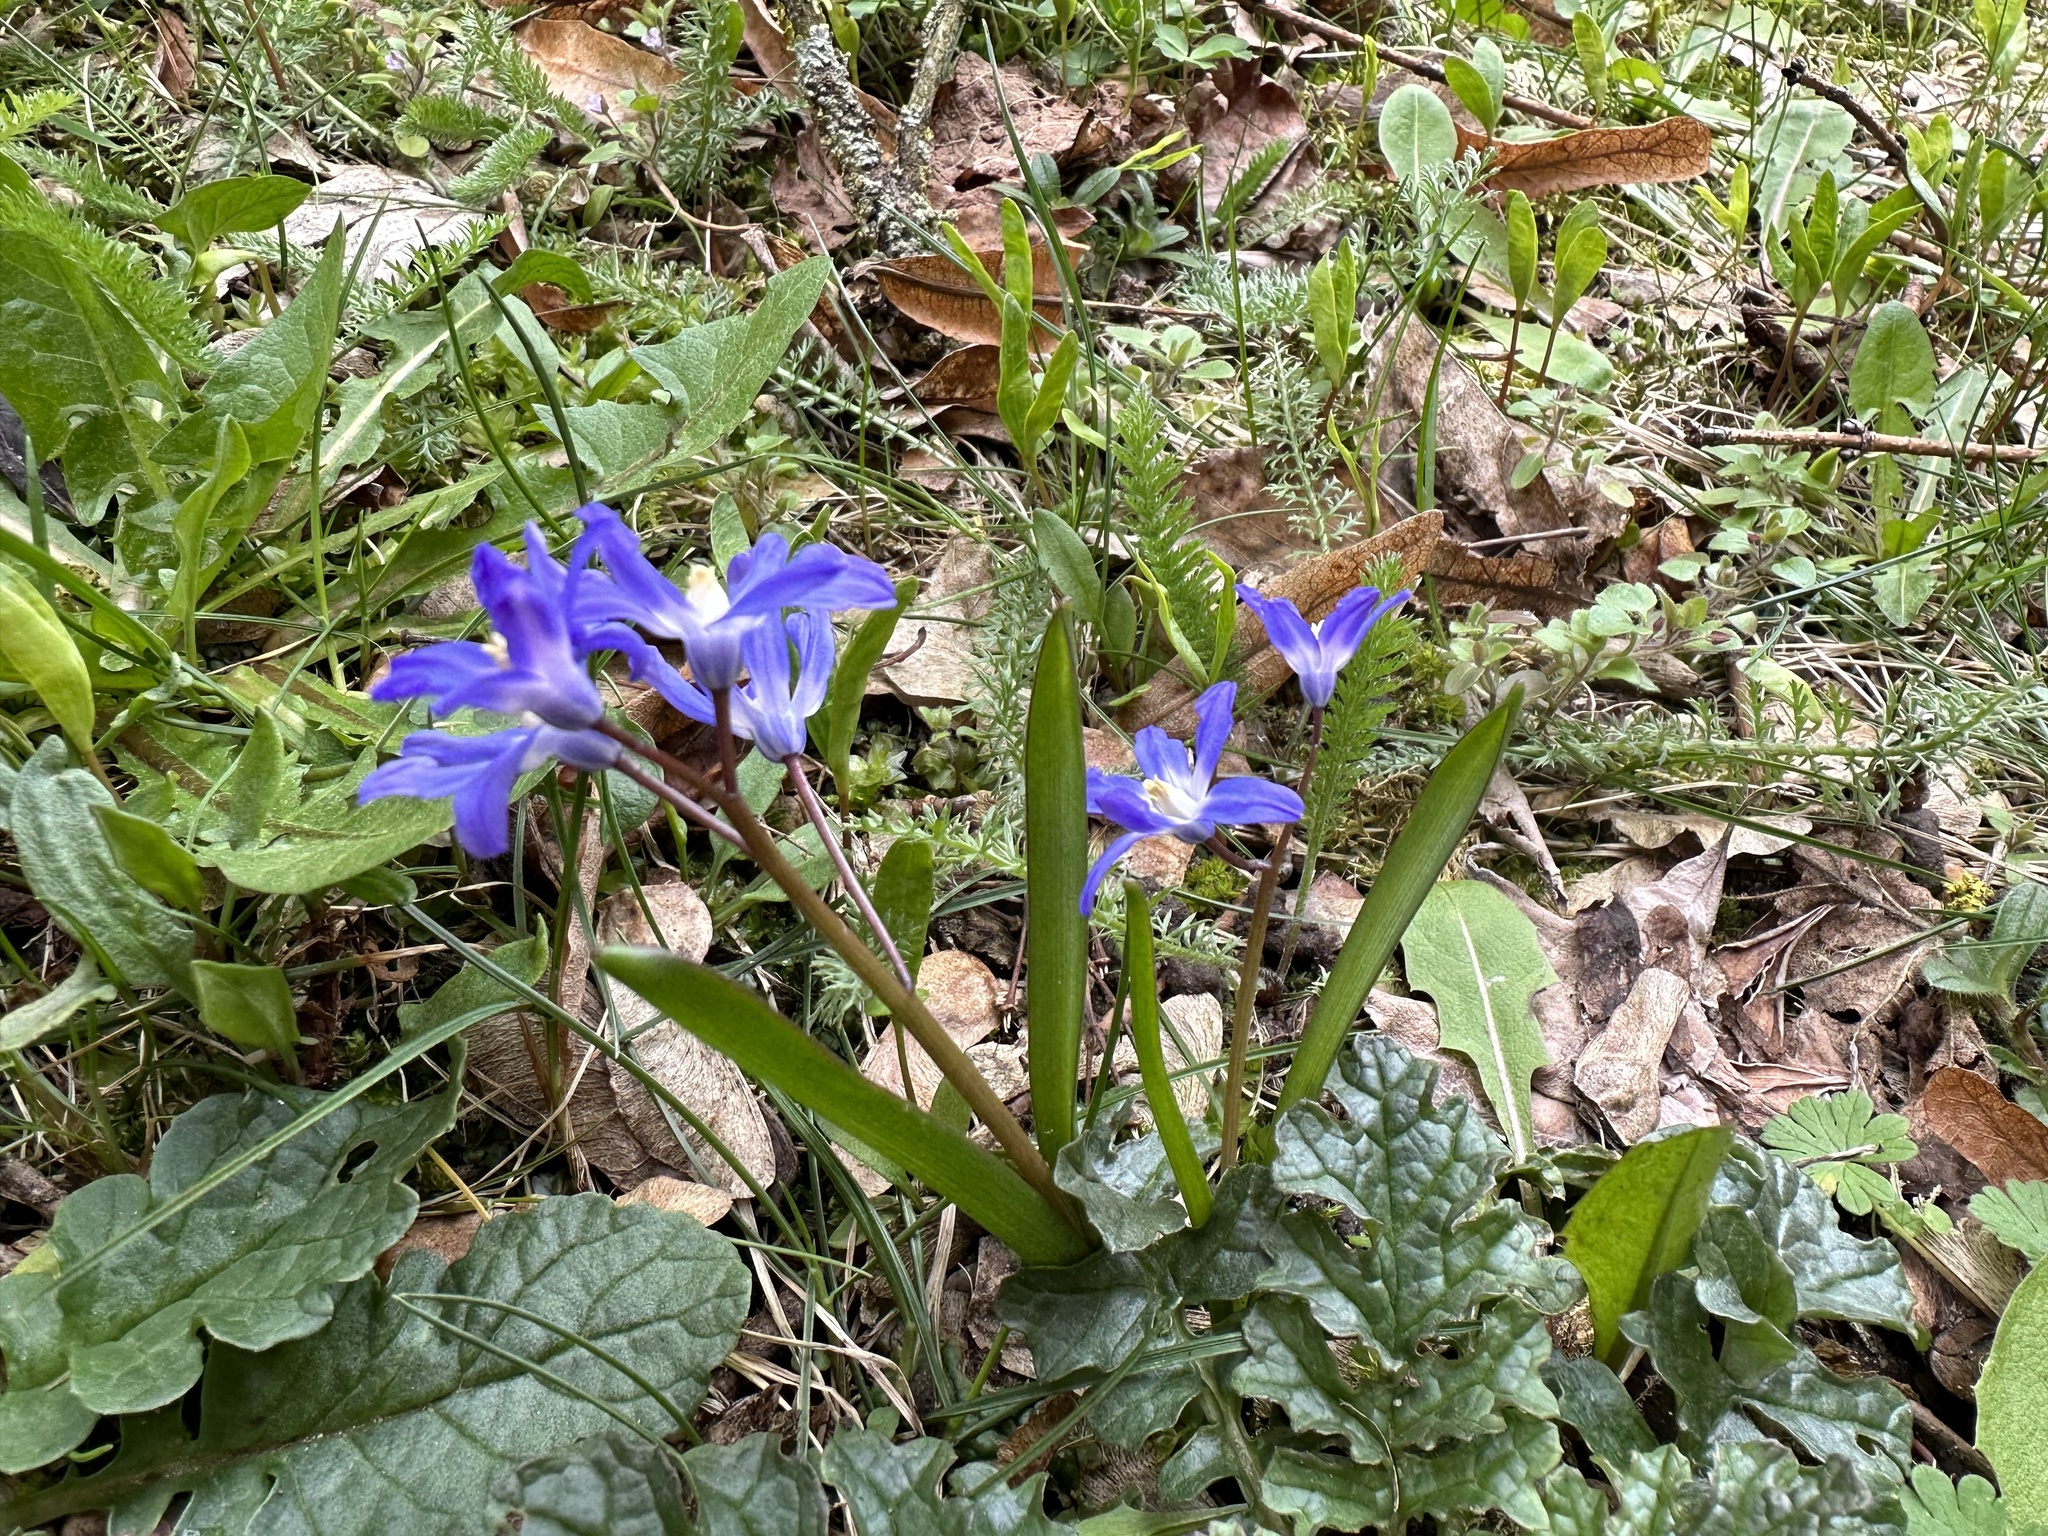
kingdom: Plantae
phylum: Tracheophyta
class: Liliopsida
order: Asparagales
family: Asparagaceae
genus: Scilla
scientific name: Scilla forbesii
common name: Glory-of-the-snow
